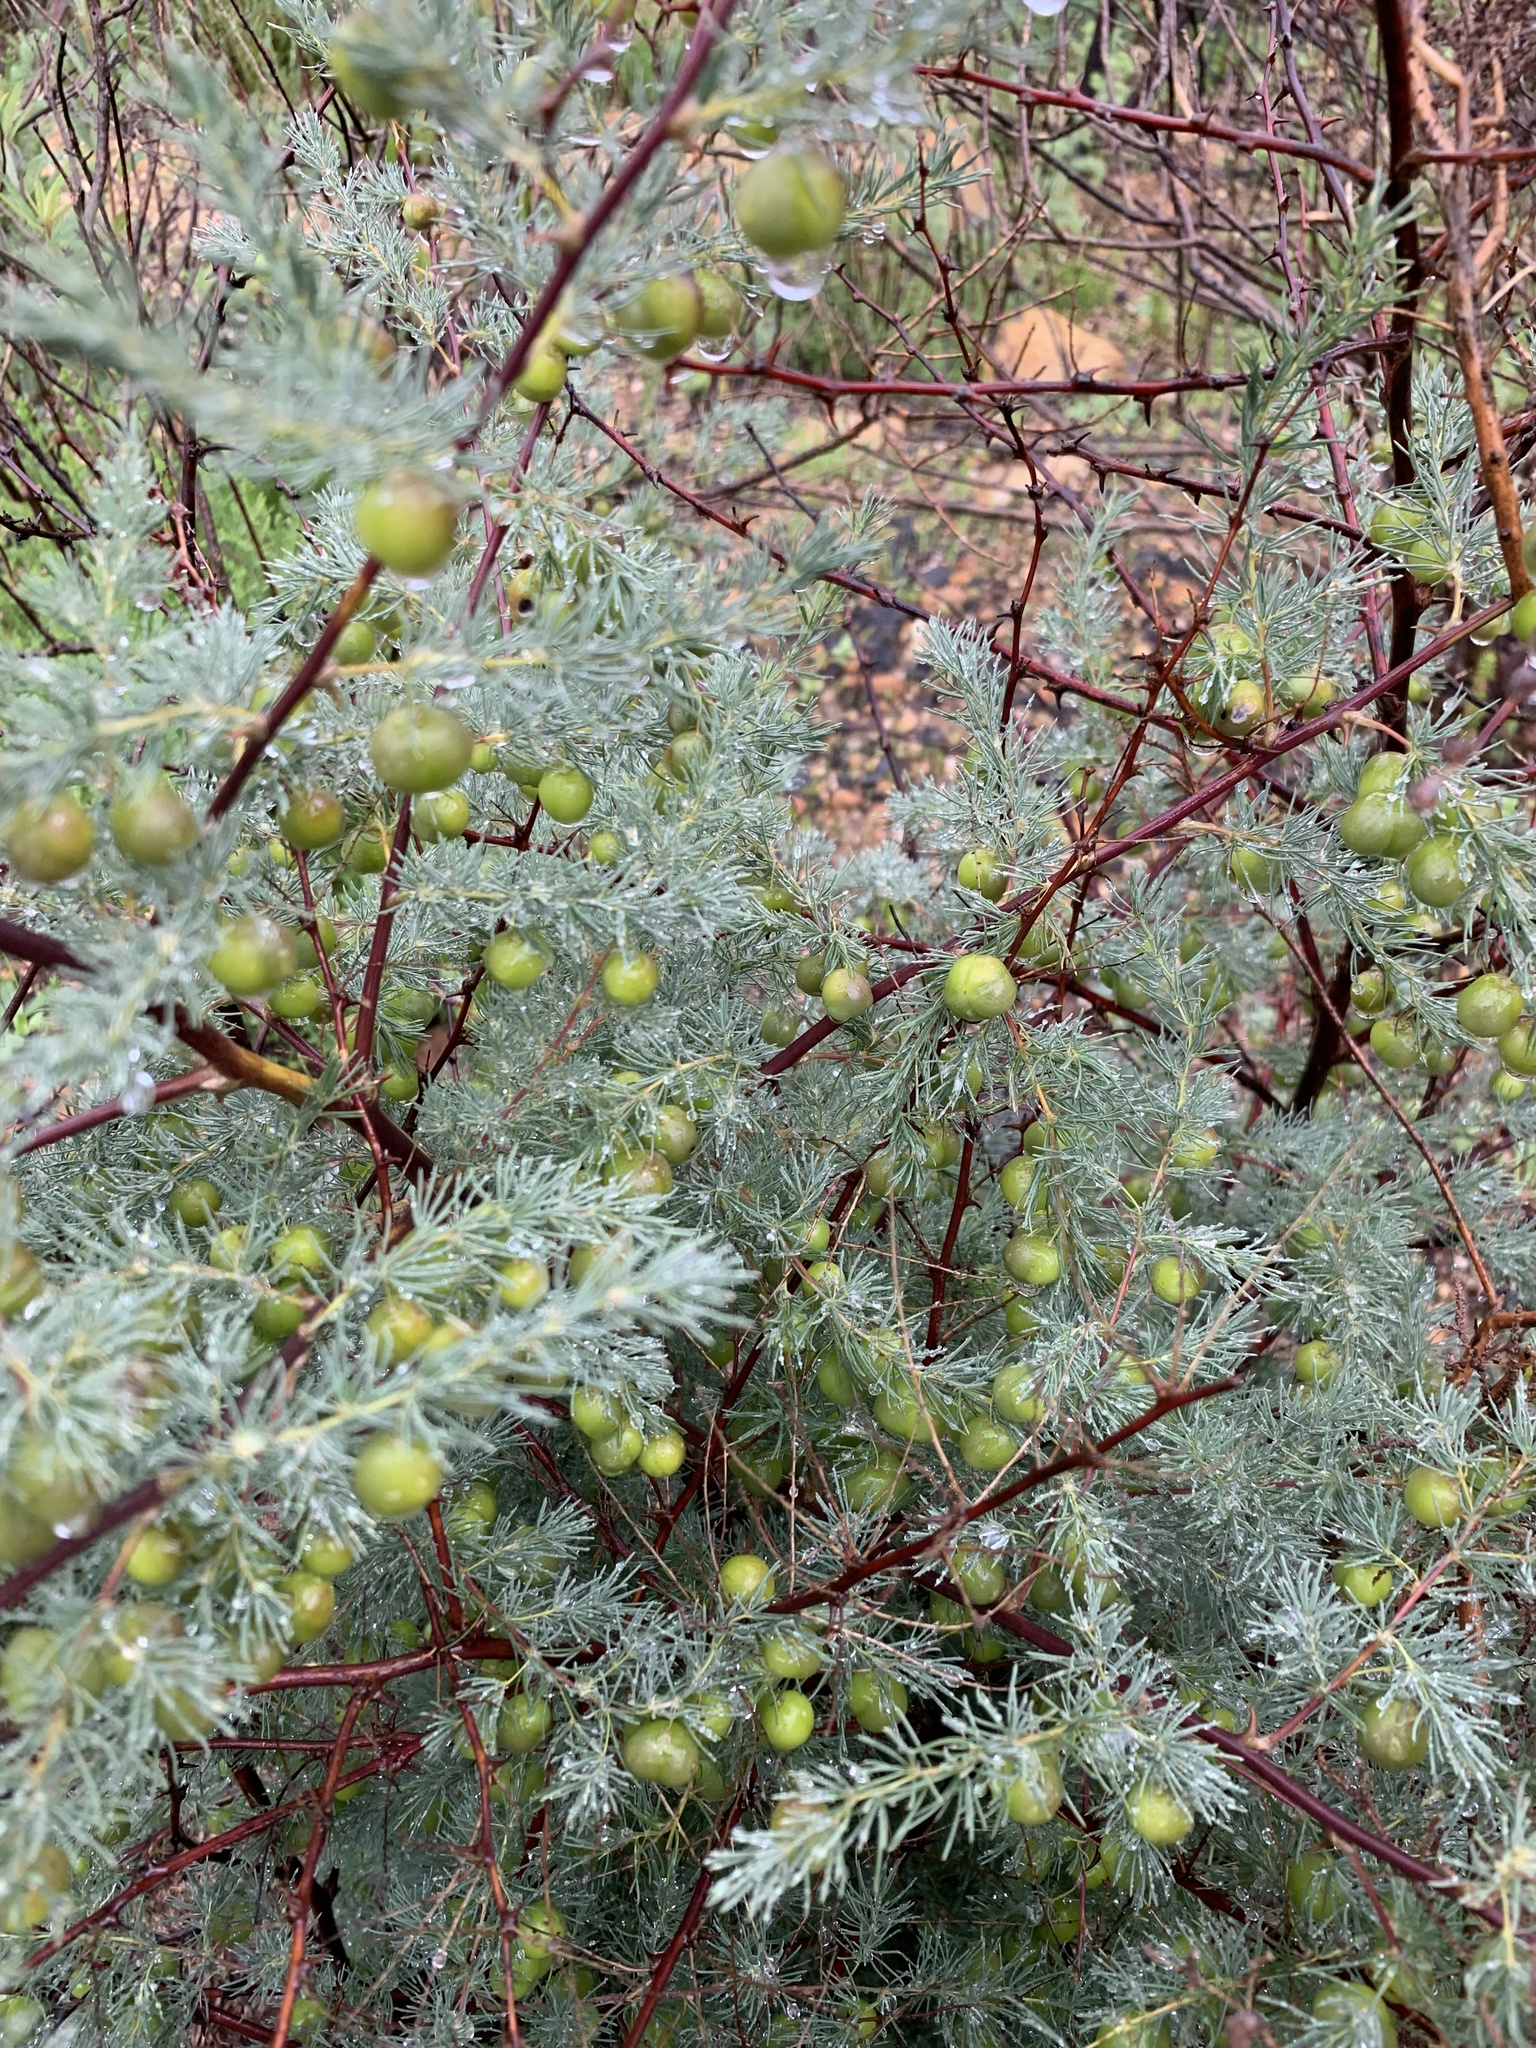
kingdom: Plantae
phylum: Tracheophyta
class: Liliopsida
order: Asparagales
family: Asparagaceae
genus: Asparagus
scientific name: Asparagus rubicundus
